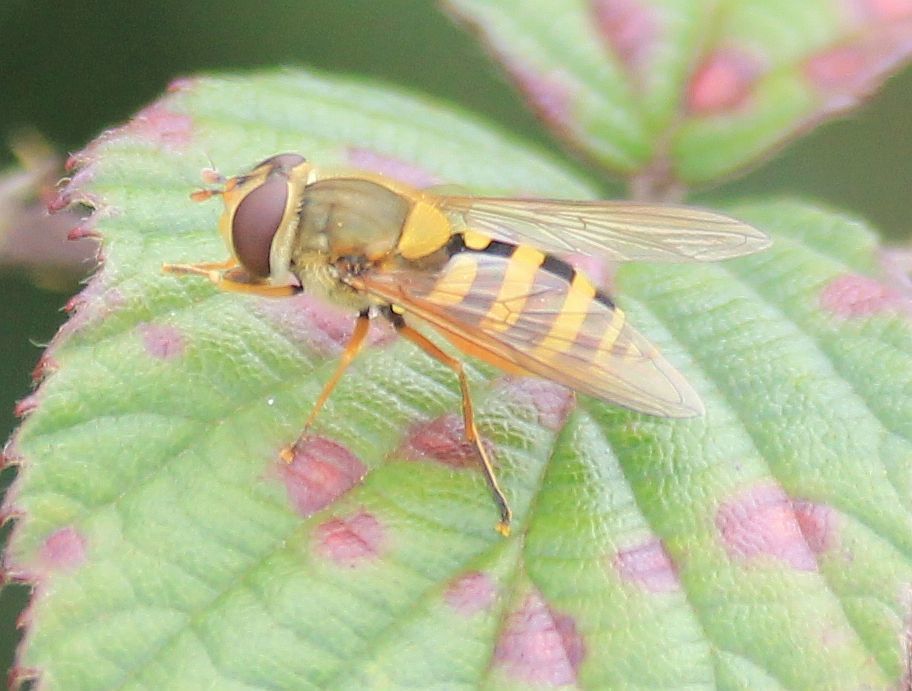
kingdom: Animalia
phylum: Arthropoda
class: Insecta
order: Diptera
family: Syrphidae
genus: Syrphus
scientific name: Syrphus ribesii
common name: Common flower fly
